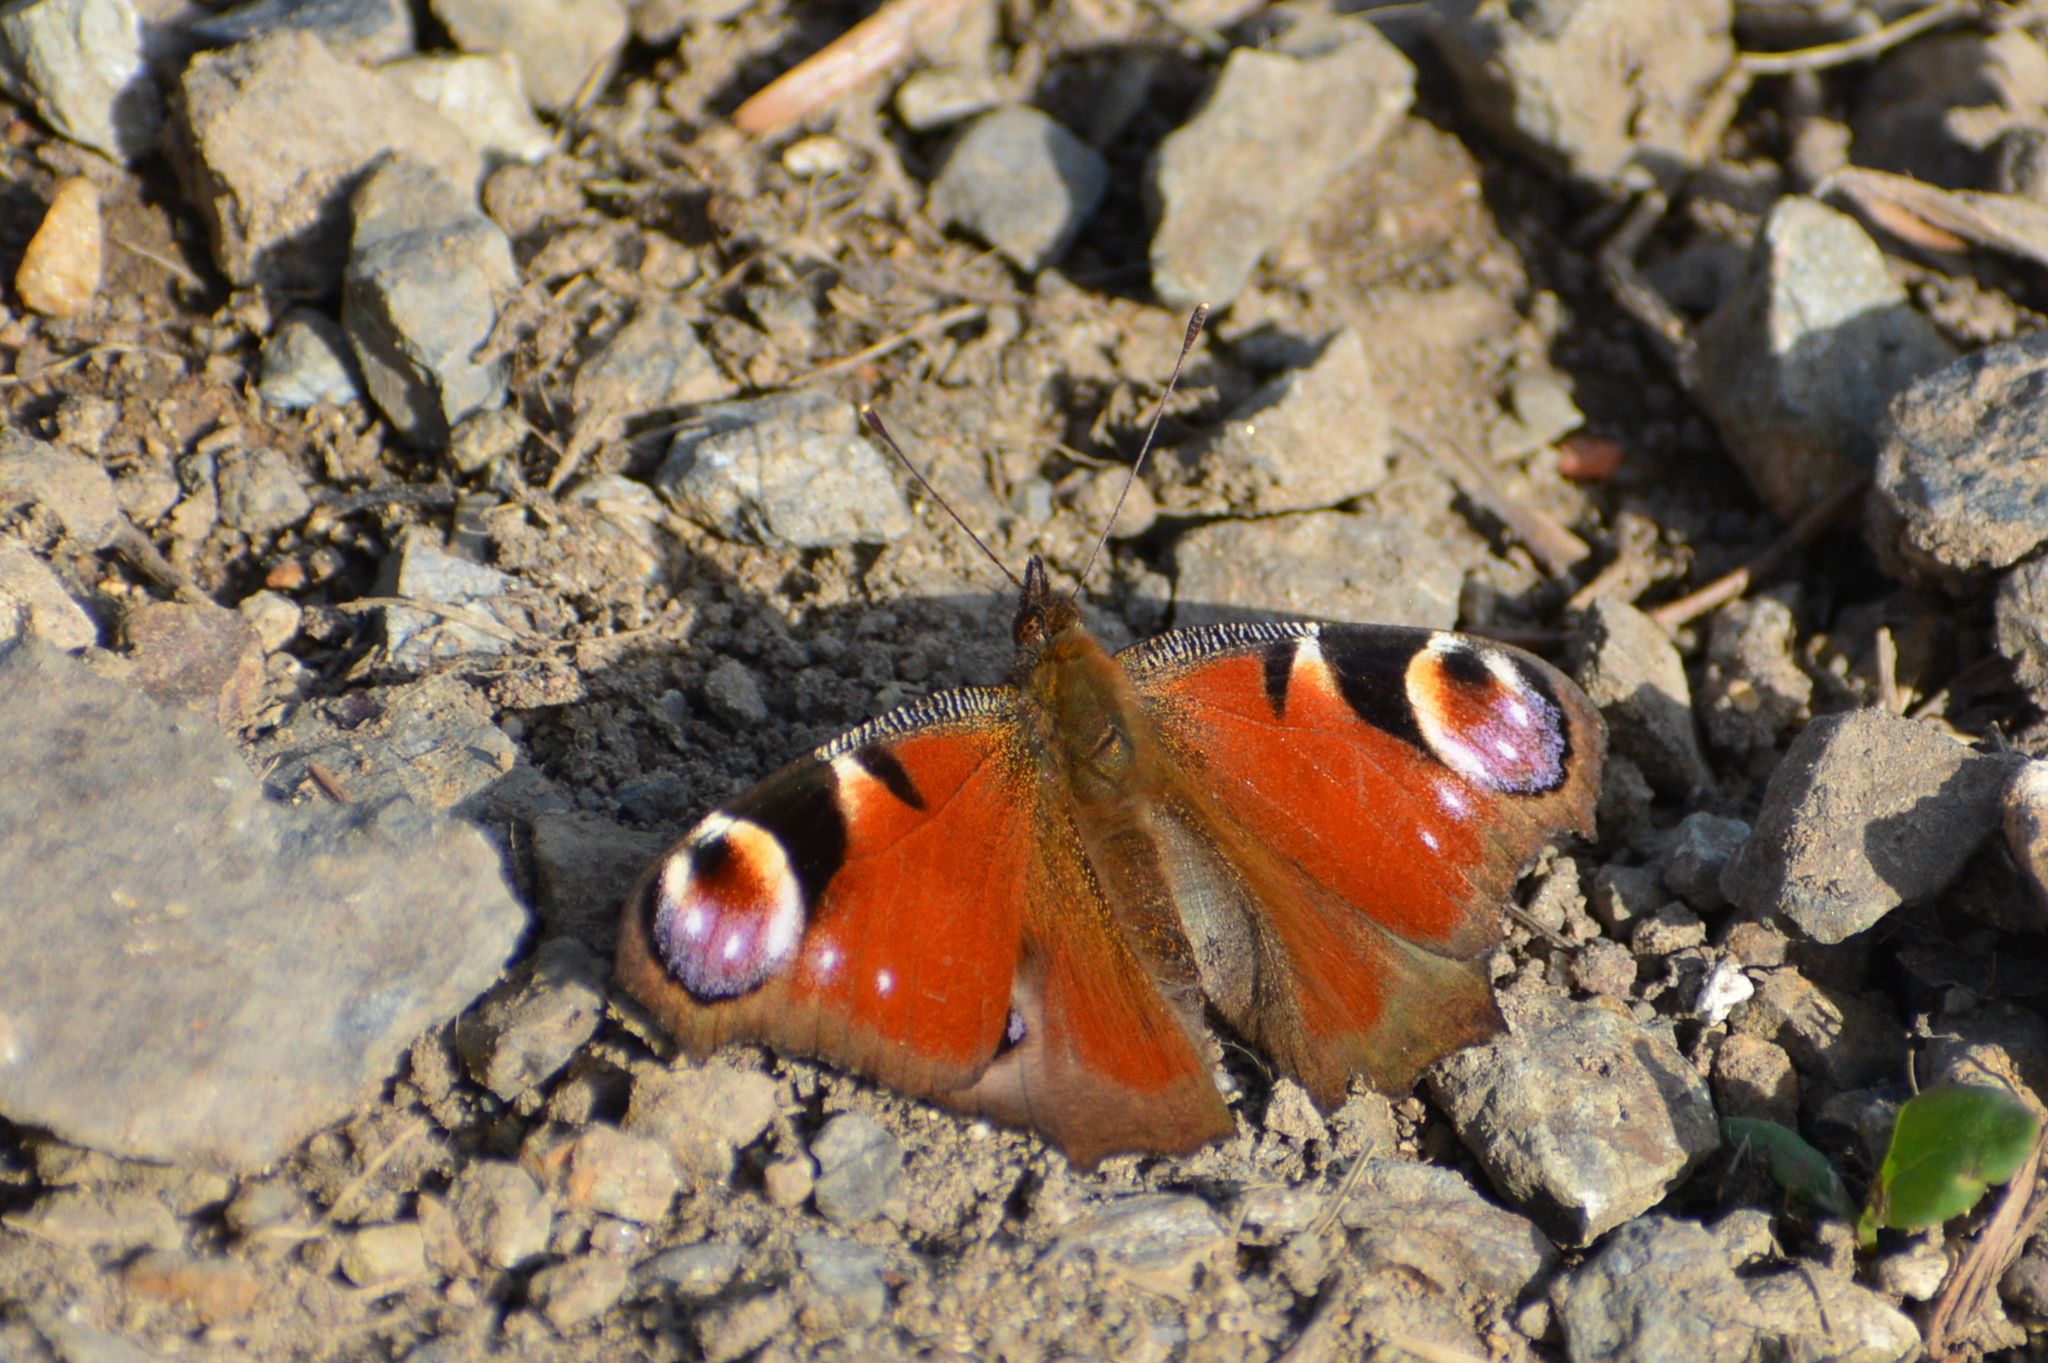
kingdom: Animalia
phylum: Arthropoda
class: Insecta
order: Lepidoptera
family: Nymphalidae
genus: Aglais
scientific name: Aglais io
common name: Peacock
